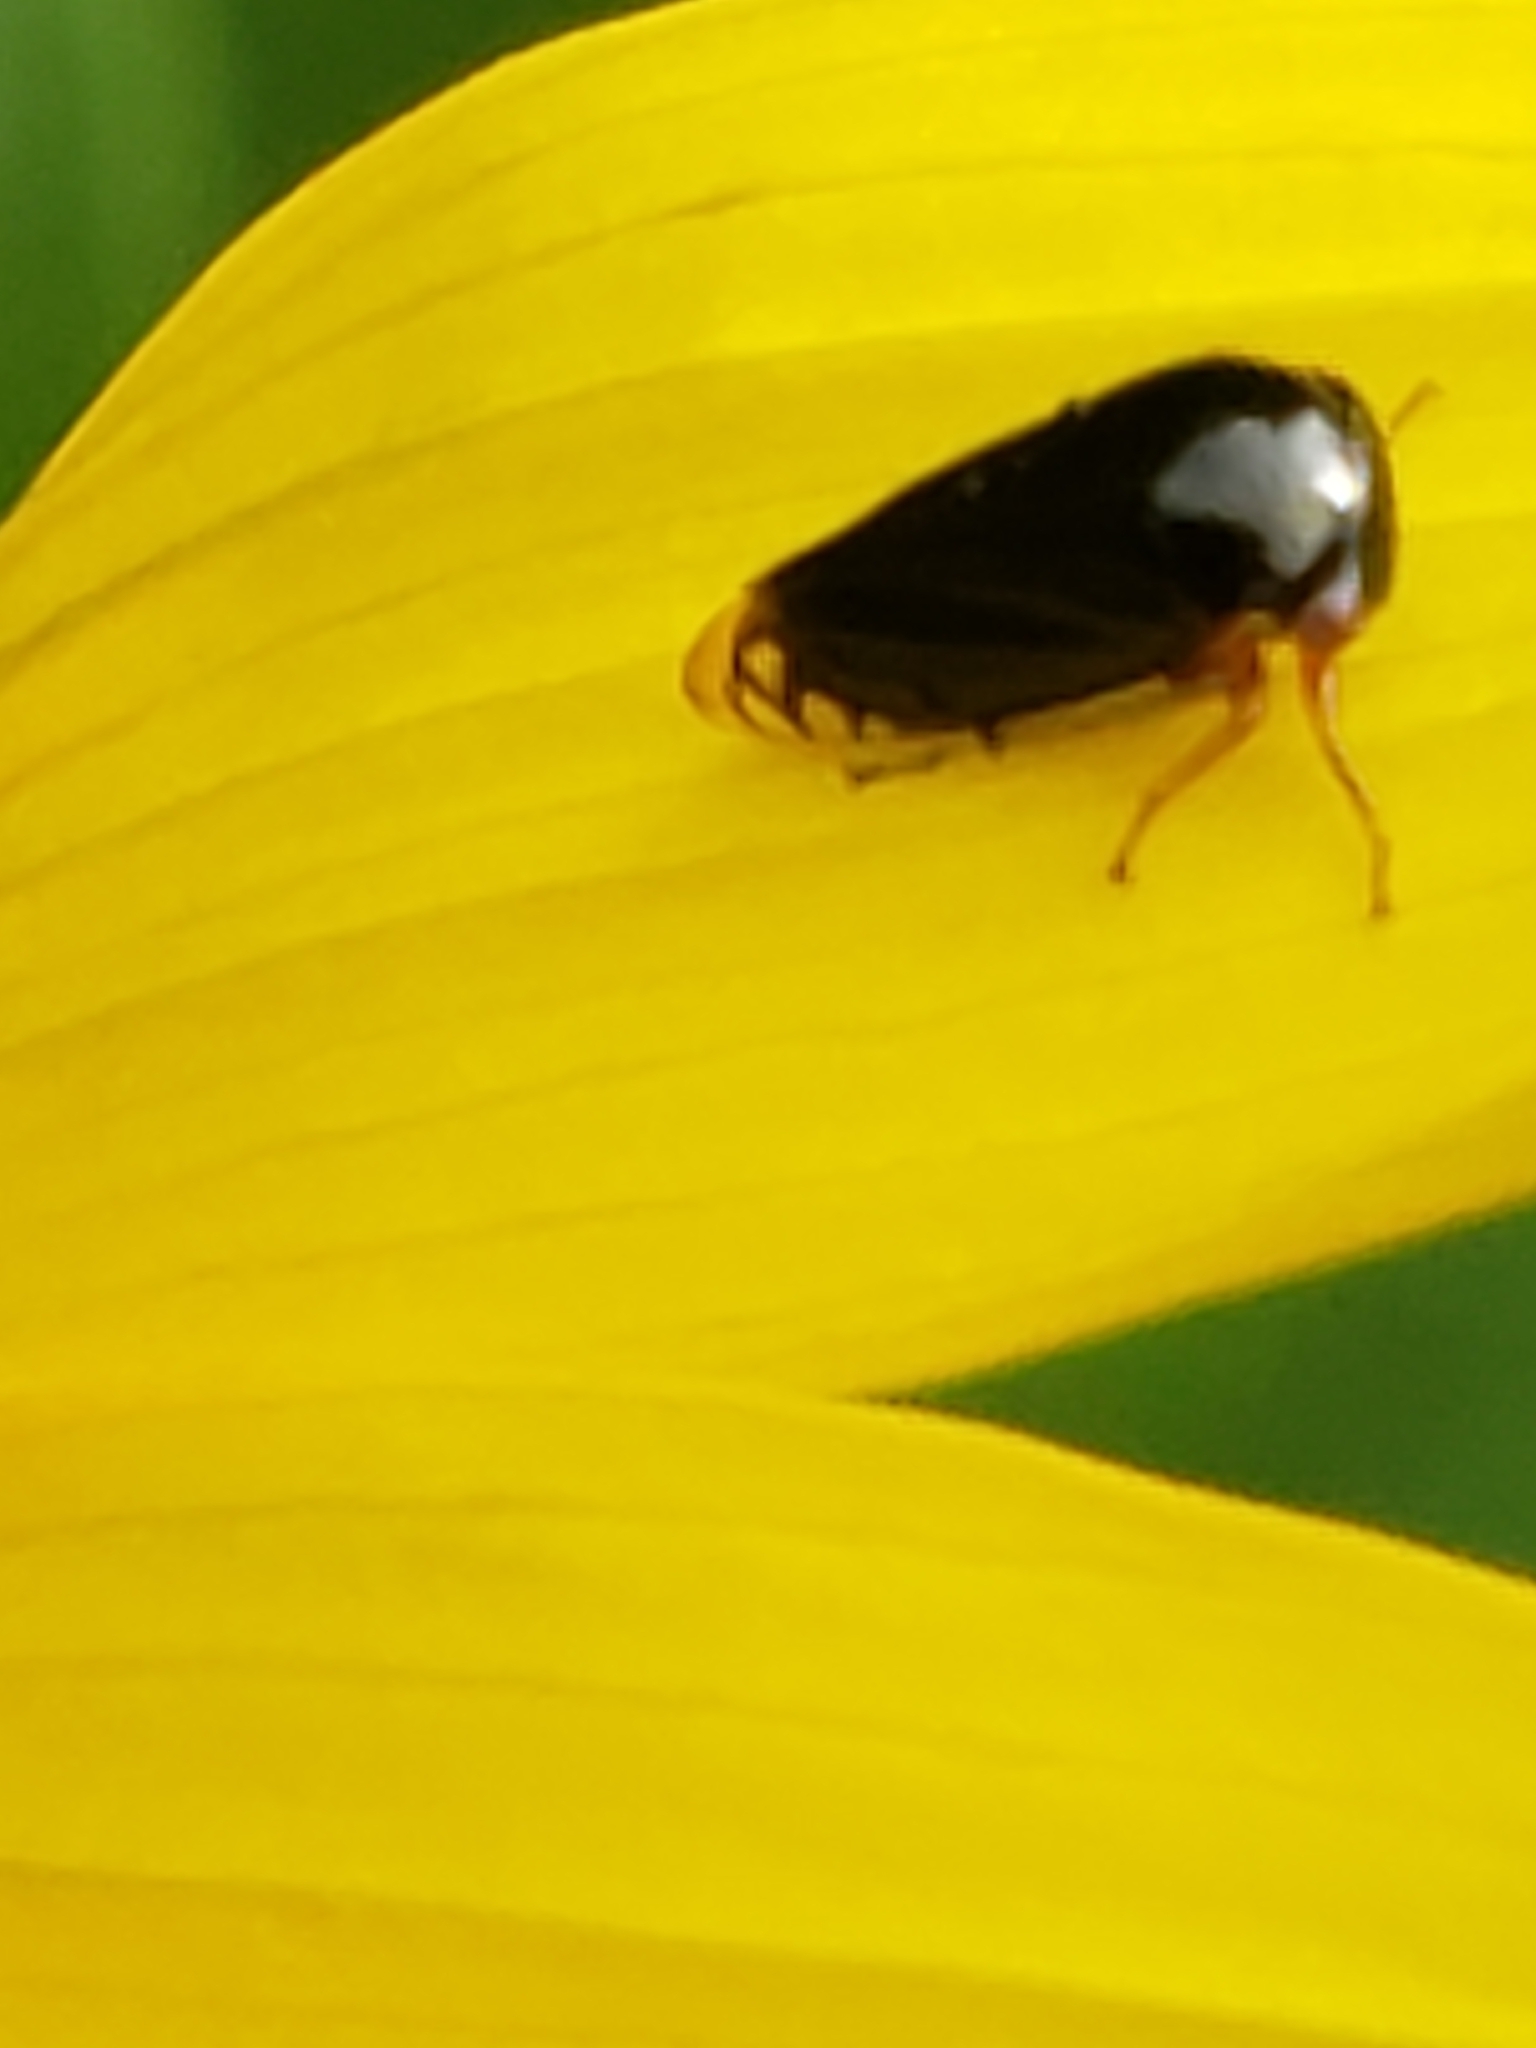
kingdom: Animalia
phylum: Arthropoda
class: Insecta
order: Hemiptera
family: Membracidae
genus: Acutalis
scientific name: Acutalis tartarea
